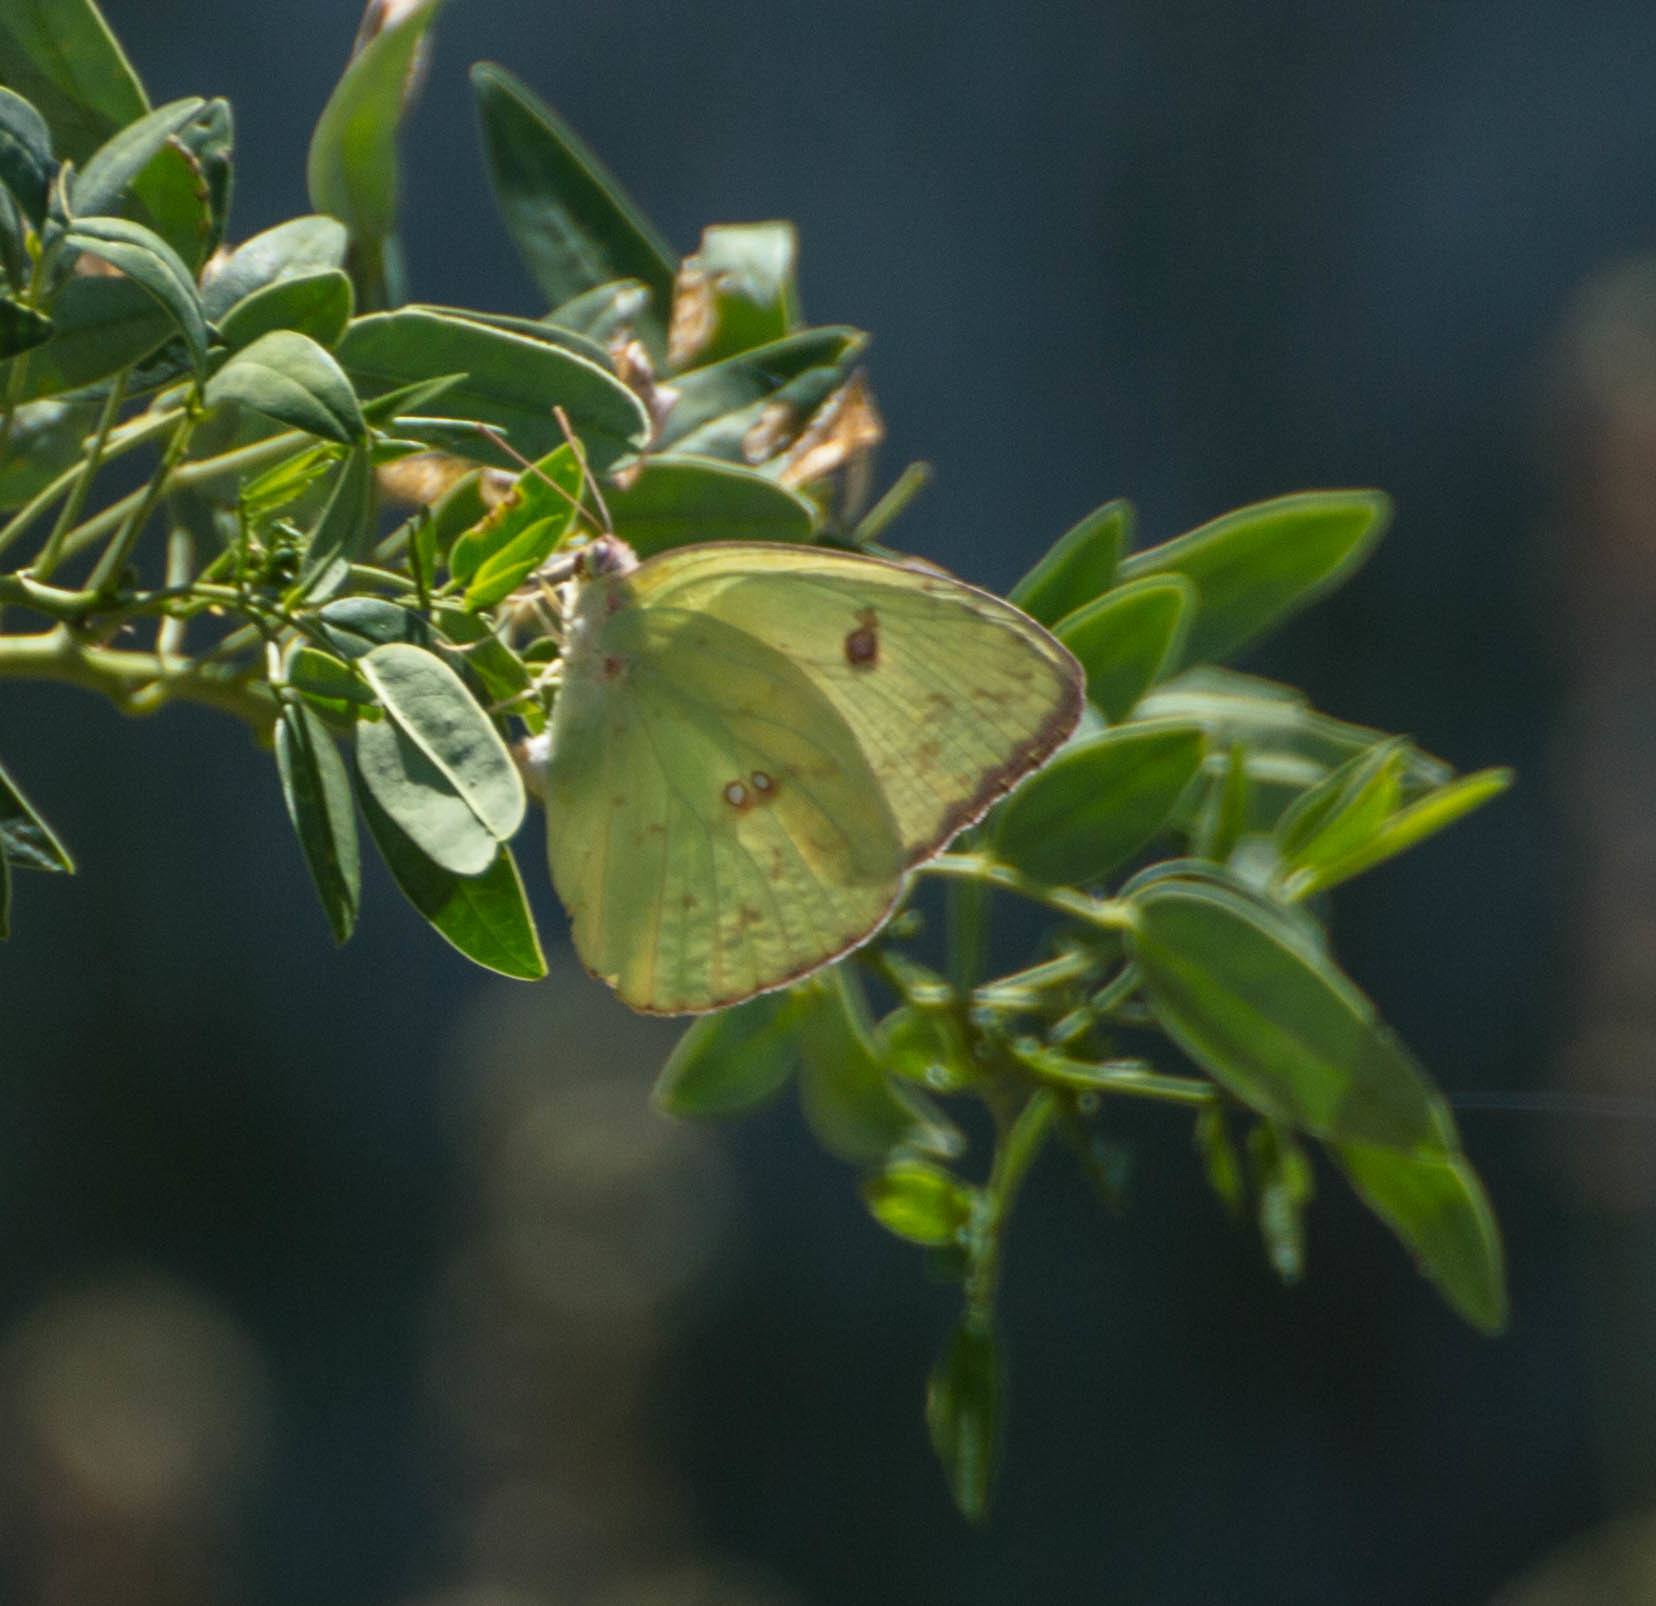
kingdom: Animalia
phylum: Arthropoda
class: Insecta
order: Lepidoptera
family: Pieridae
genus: Phoebis
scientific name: Phoebis sennae
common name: Cloudless sulphur
